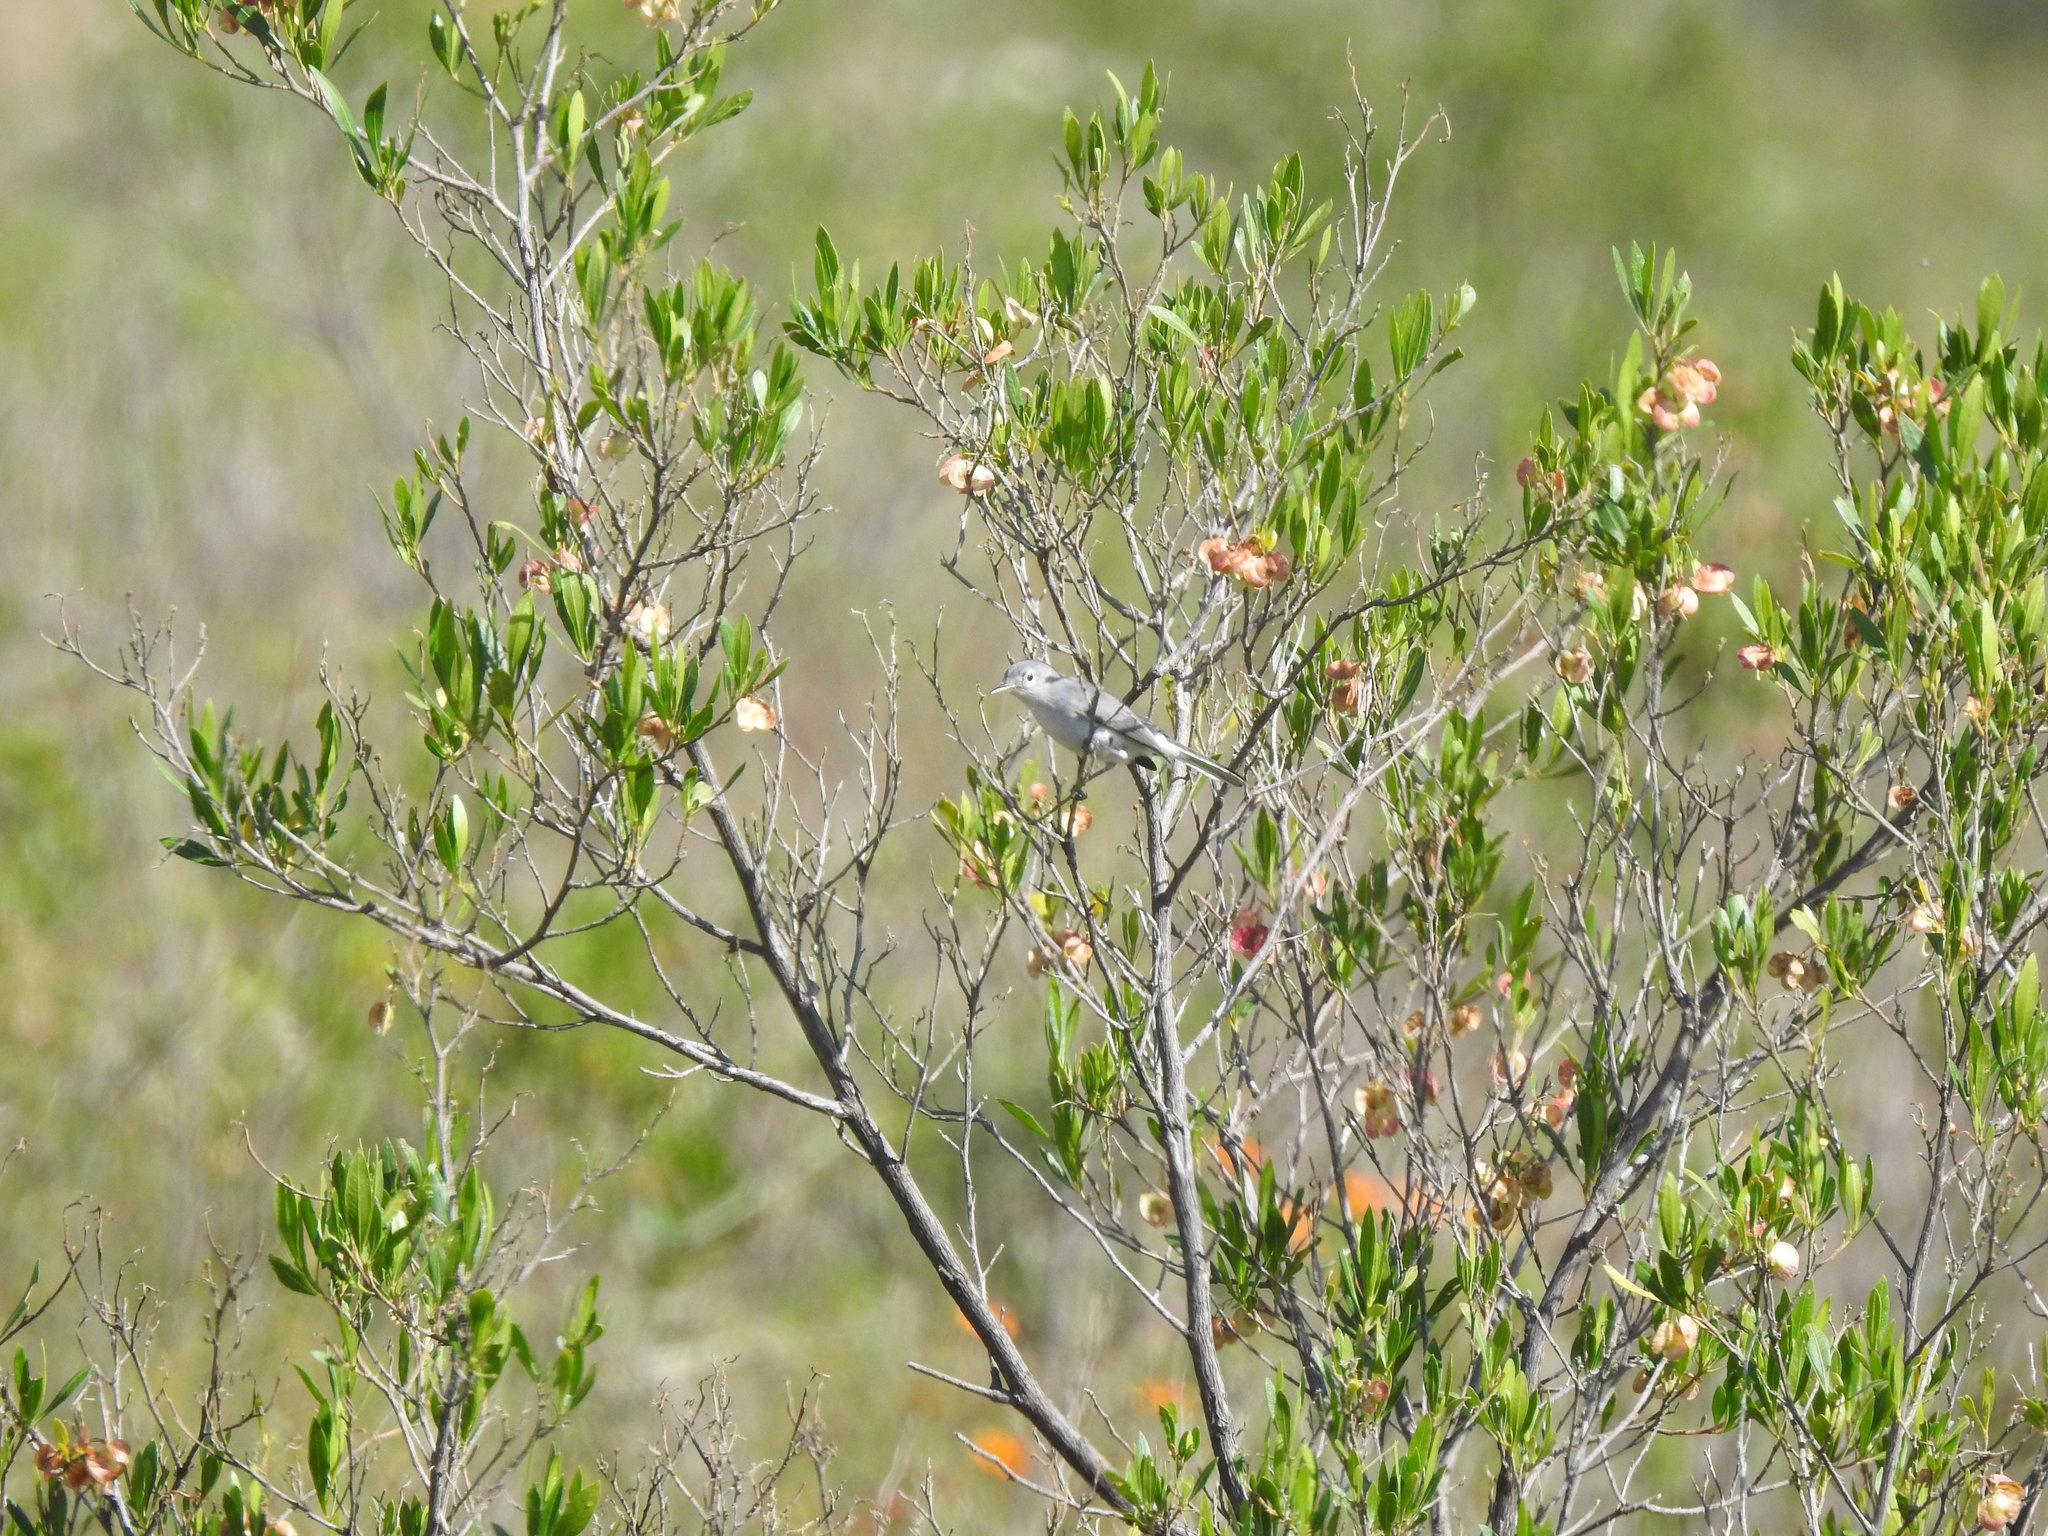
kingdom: Animalia
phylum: Chordata
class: Aves
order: Passeriformes
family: Polioptilidae
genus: Polioptila
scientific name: Polioptila caerulea
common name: Blue-gray gnatcatcher
